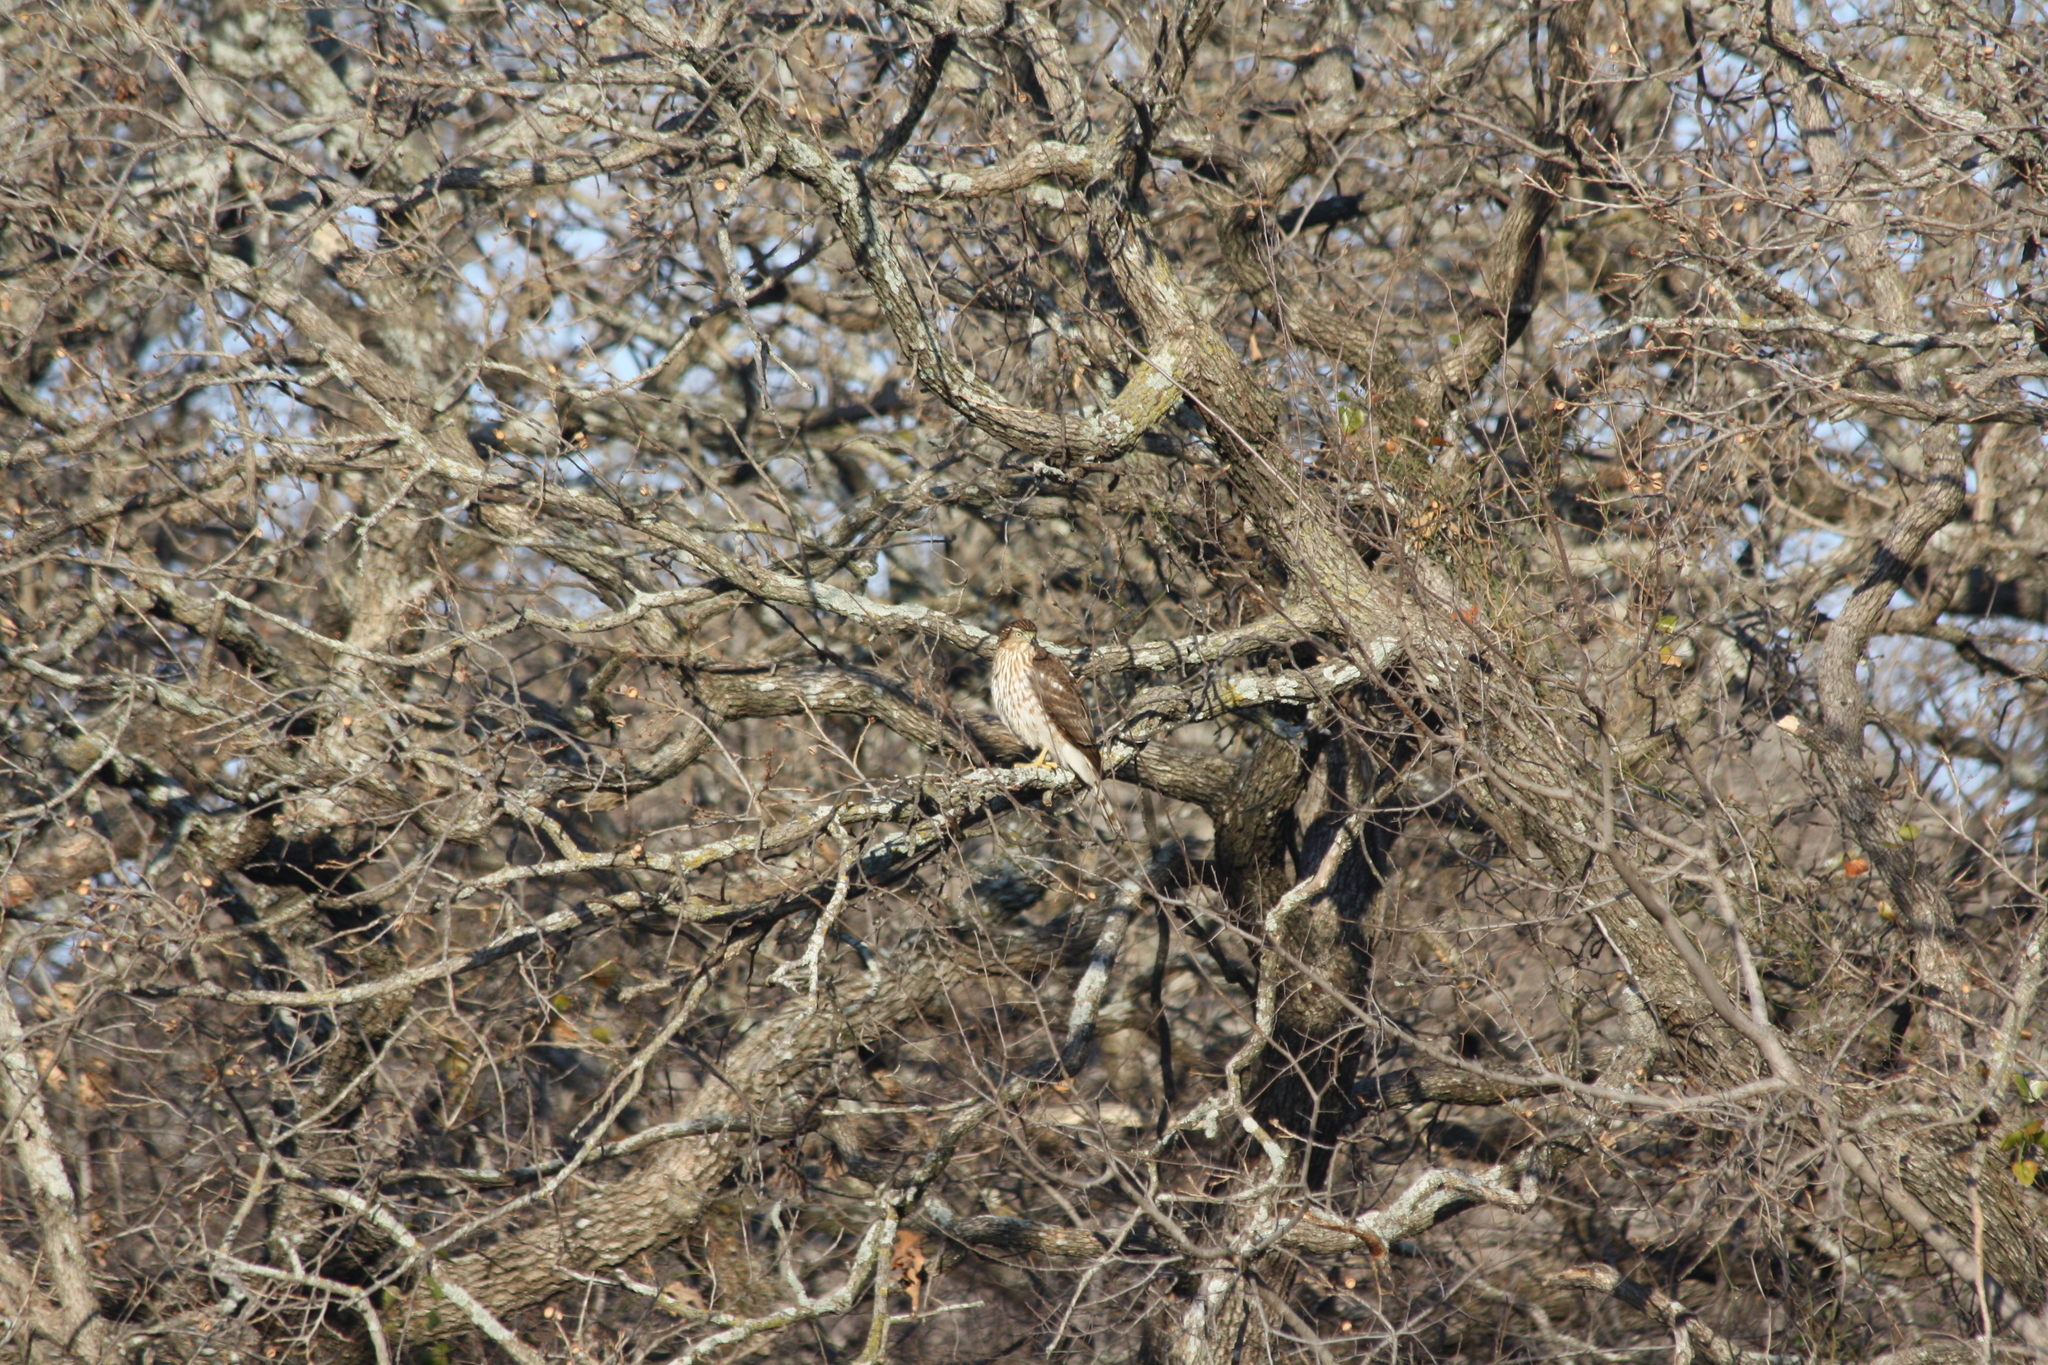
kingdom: Animalia
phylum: Chordata
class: Aves
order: Accipitriformes
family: Accipitridae
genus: Accipiter
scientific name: Accipiter cooperii
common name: Cooper's hawk
